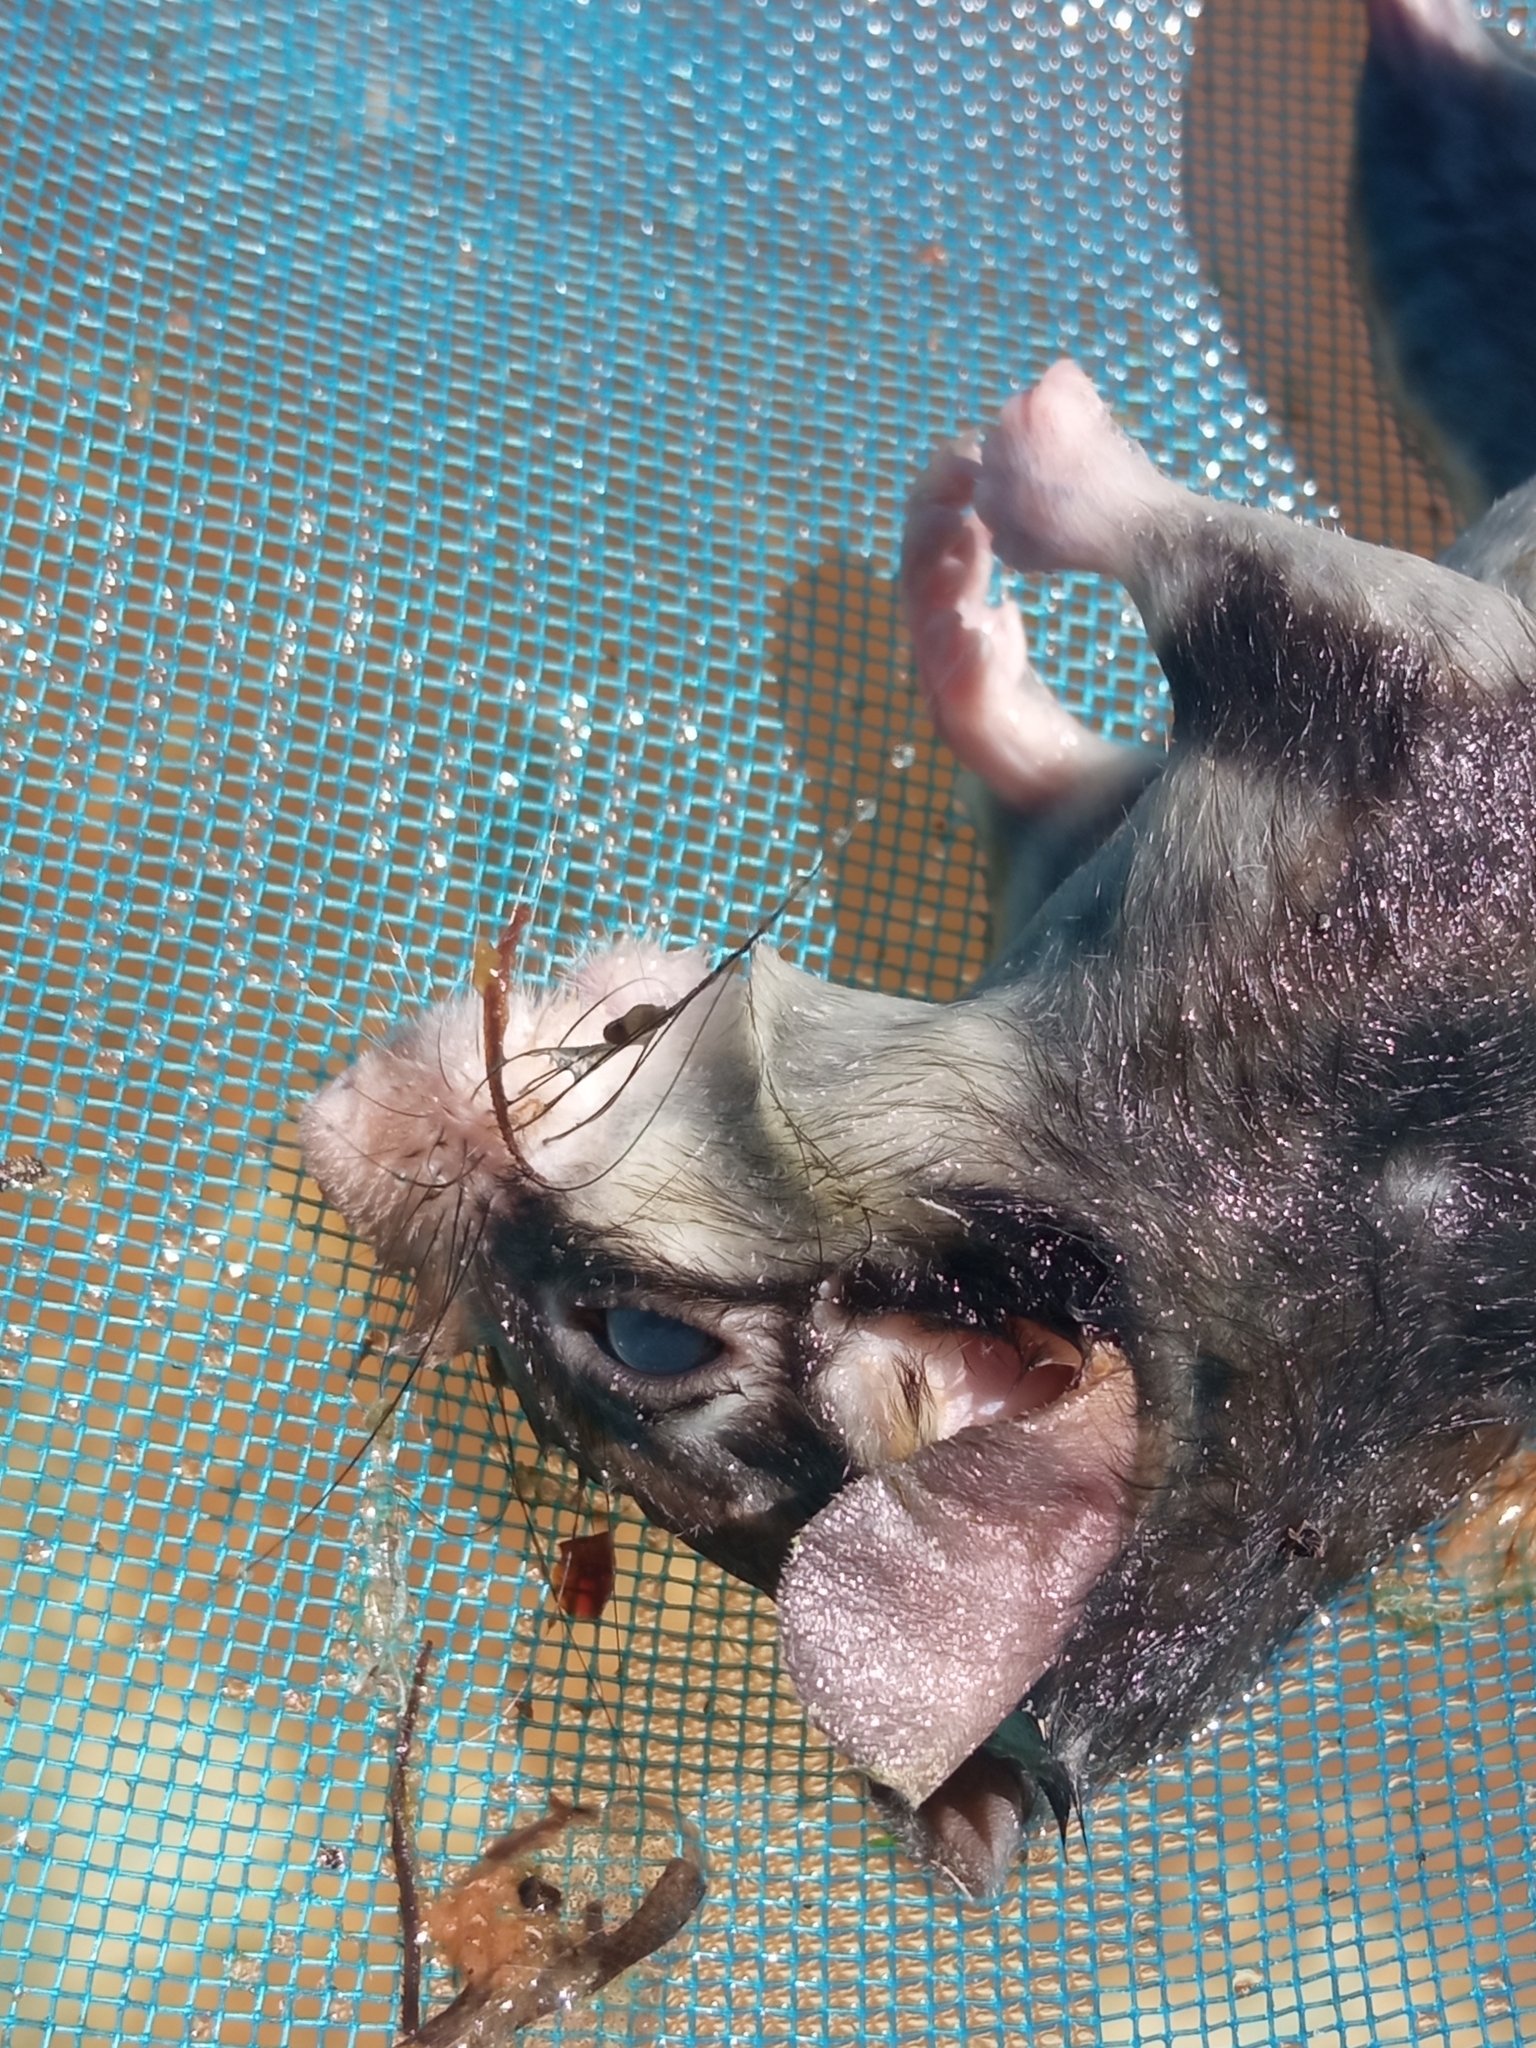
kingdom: Animalia
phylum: Chordata
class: Mammalia
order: Rodentia
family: Gliridae
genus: Eliomys
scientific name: Eliomys quercinus
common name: Garden dormouse
